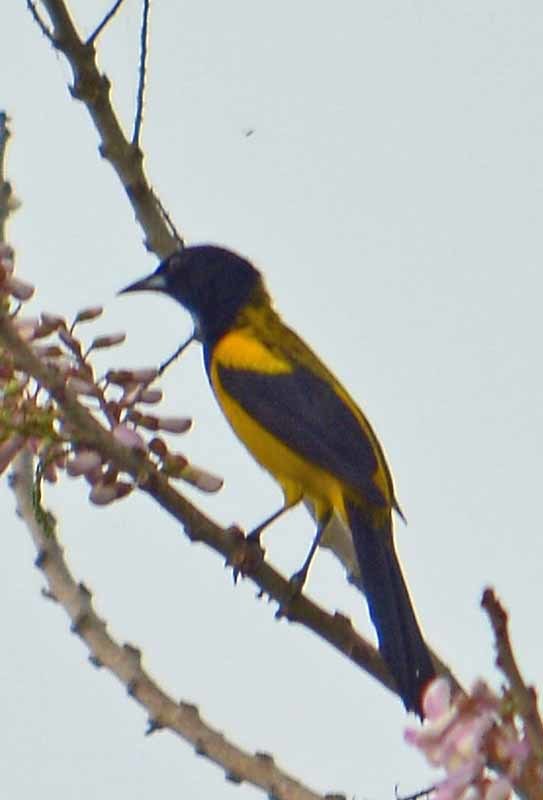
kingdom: Animalia
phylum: Chordata
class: Aves
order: Passeriformes
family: Icteridae
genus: Icterus
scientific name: Icterus prosthemelas
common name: Black-cowled oriole
